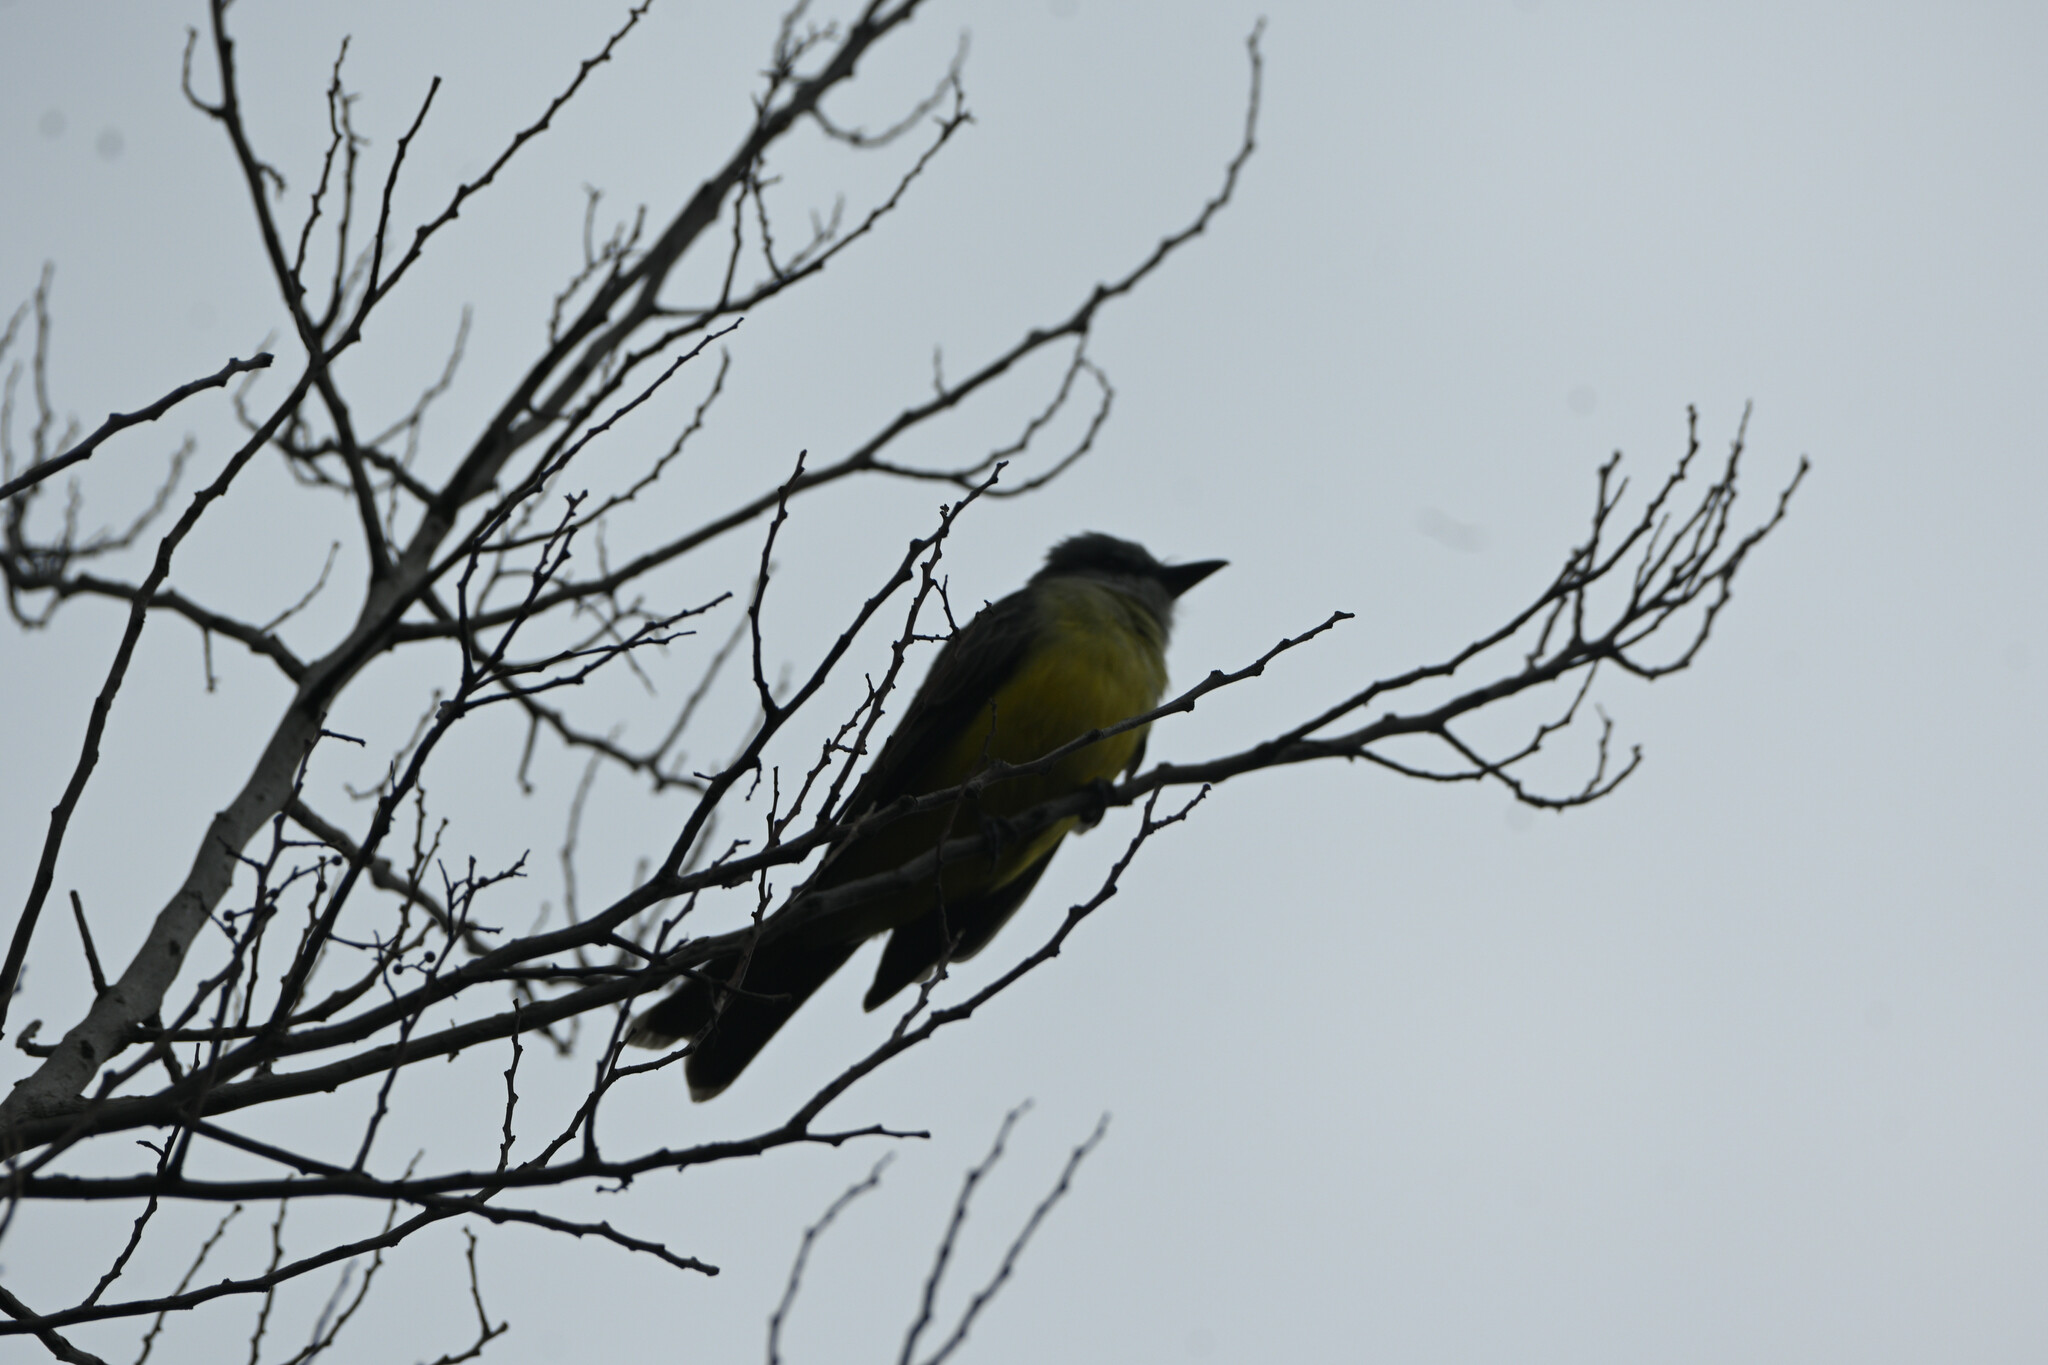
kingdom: Animalia
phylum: Chordata
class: Aves
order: Passeriformes
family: Tyrannidae
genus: Tyrannus
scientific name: Tyrannus melancholicus
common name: Tropical kingbird
